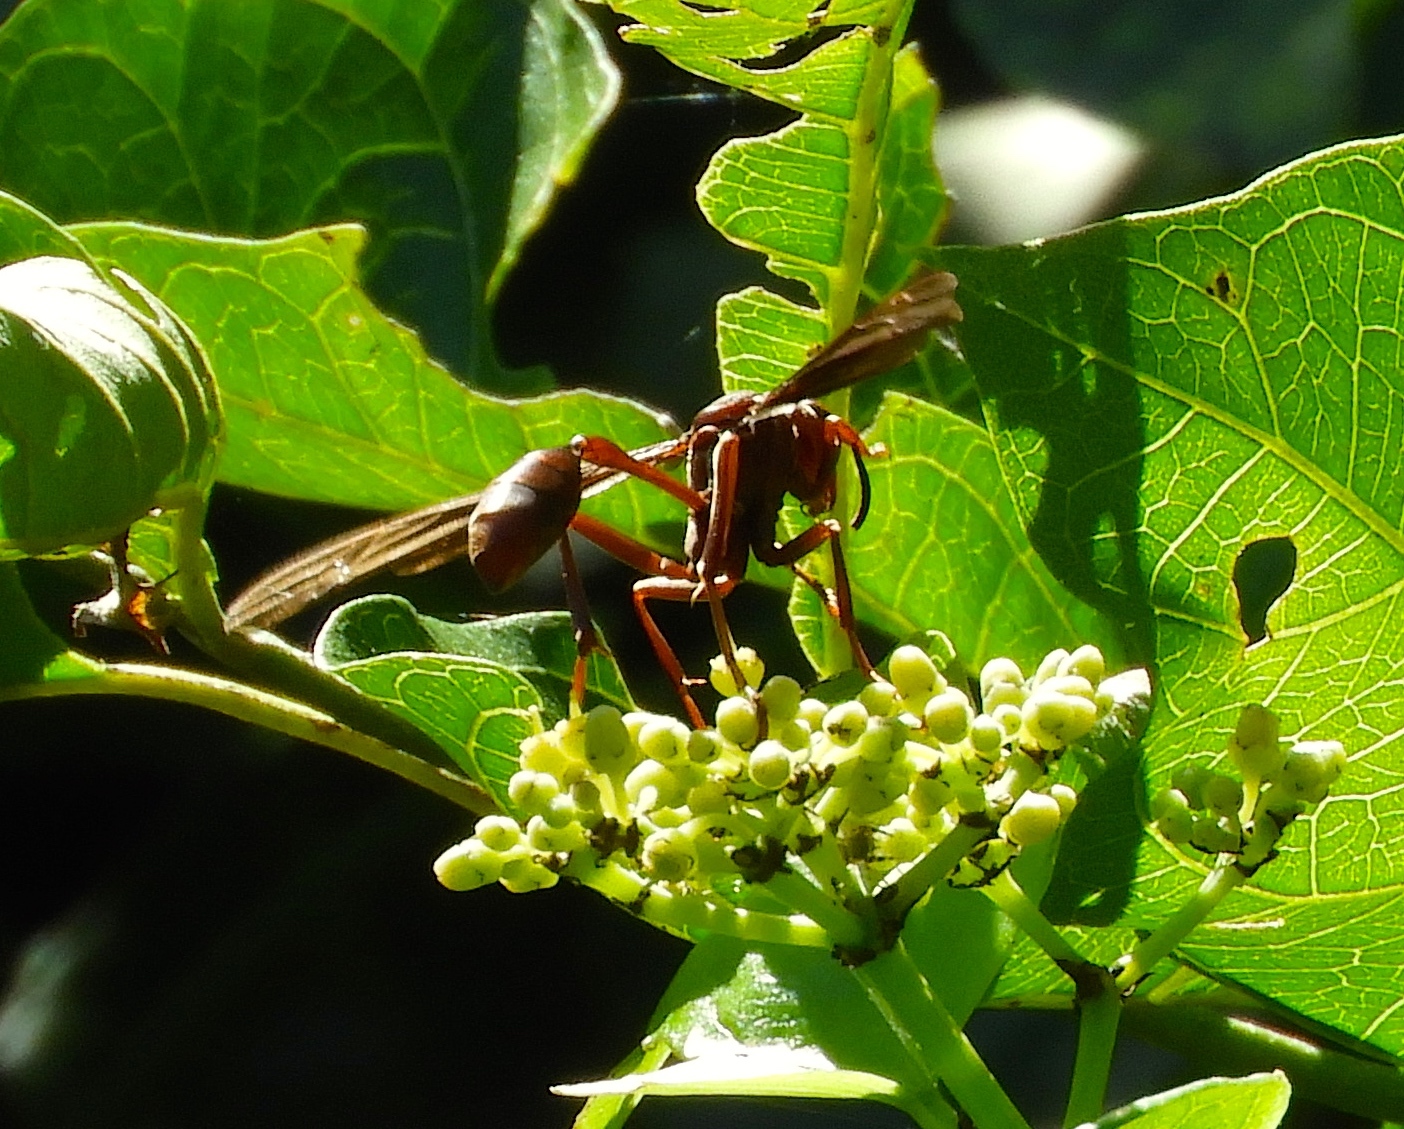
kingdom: Animalia
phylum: Arthropoda
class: Insecta
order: Hymenoptera
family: Vespidae
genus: Mischocyttarus
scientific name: Mischocyttarus melanarius
